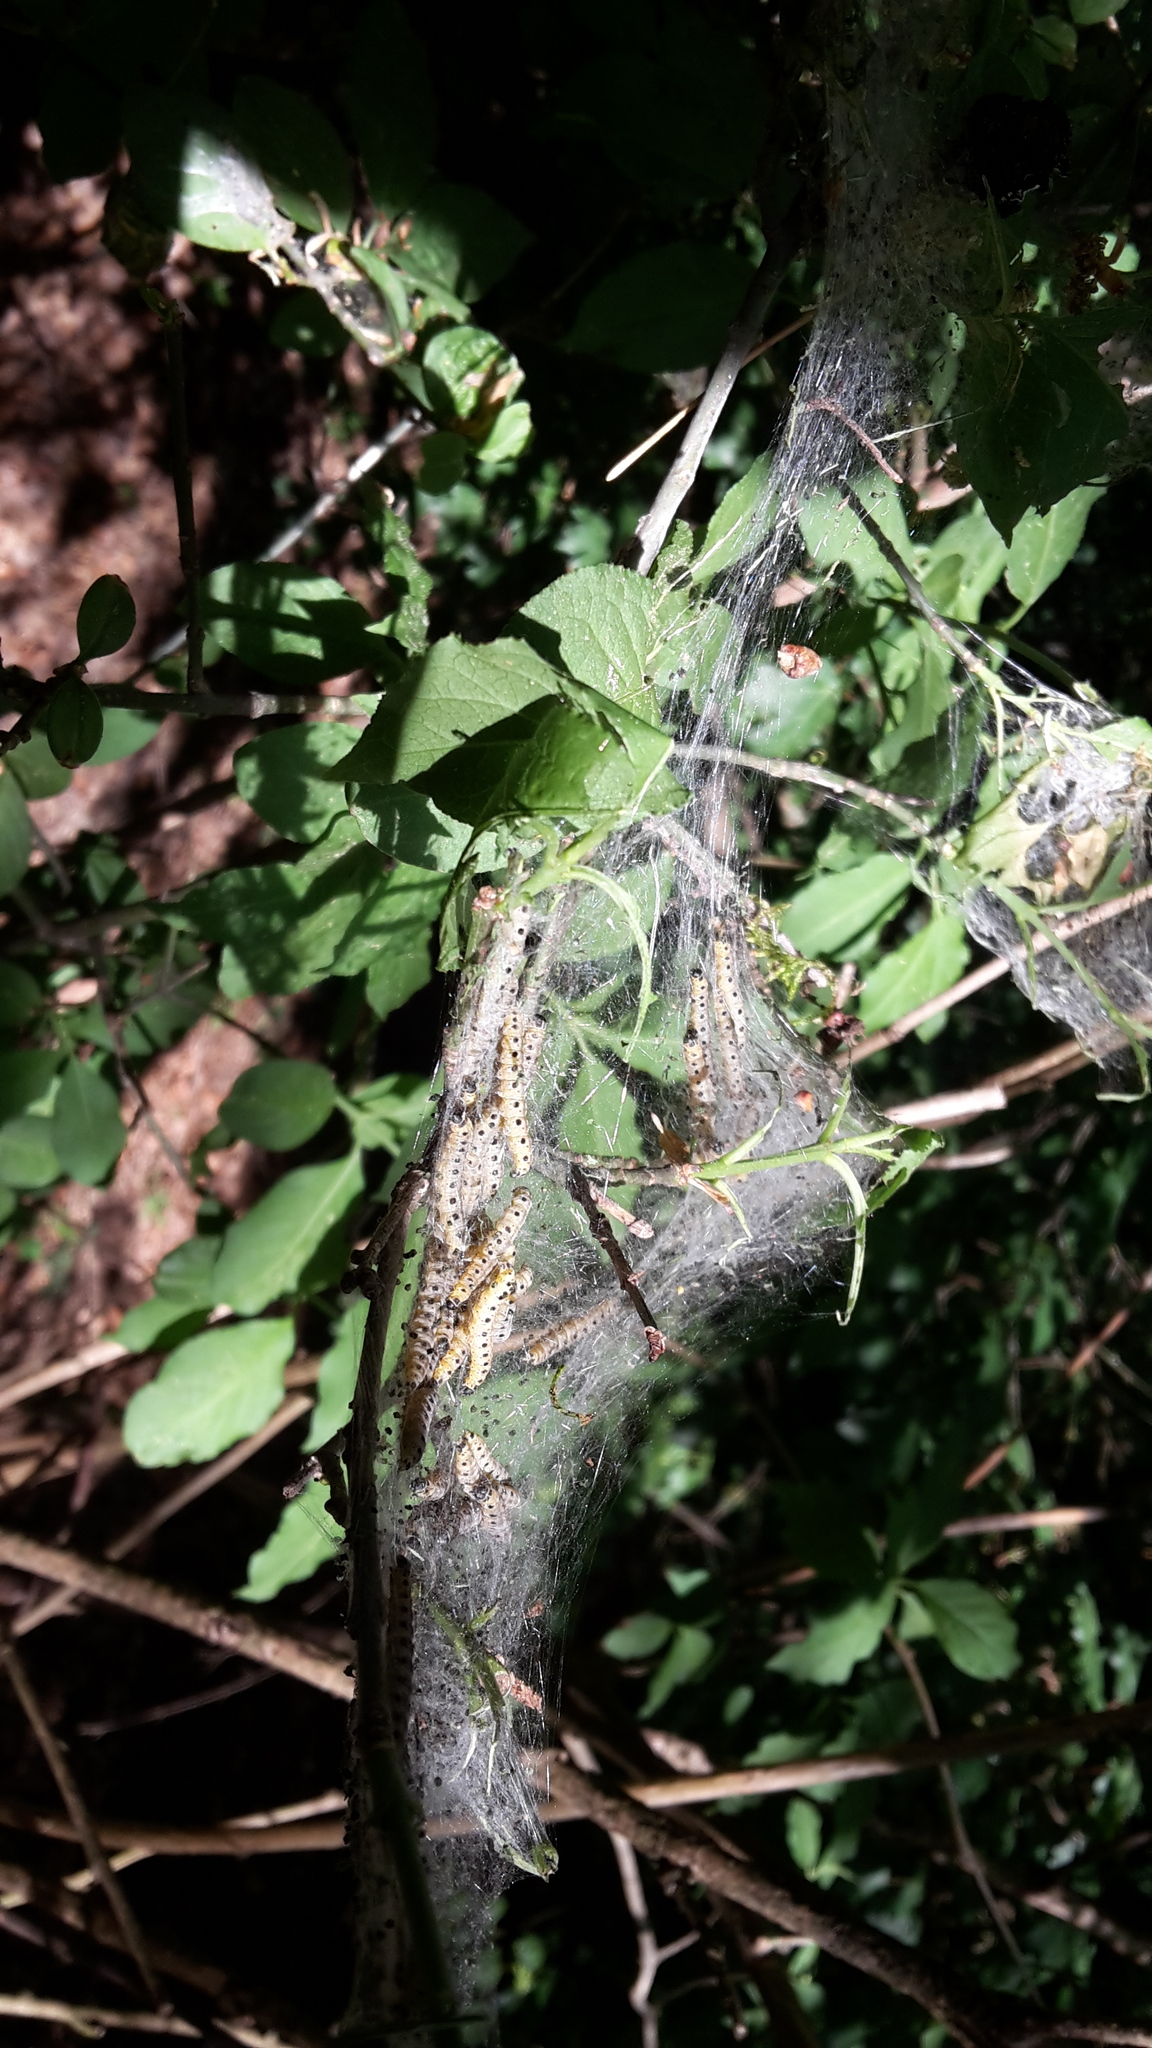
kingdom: Animalia
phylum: Arthropoda
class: Insecta
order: Lepidoptera
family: Yponomeutidae
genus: Yponomeuta
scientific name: Yponomeuta cagnagellus
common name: Spindle ermine
